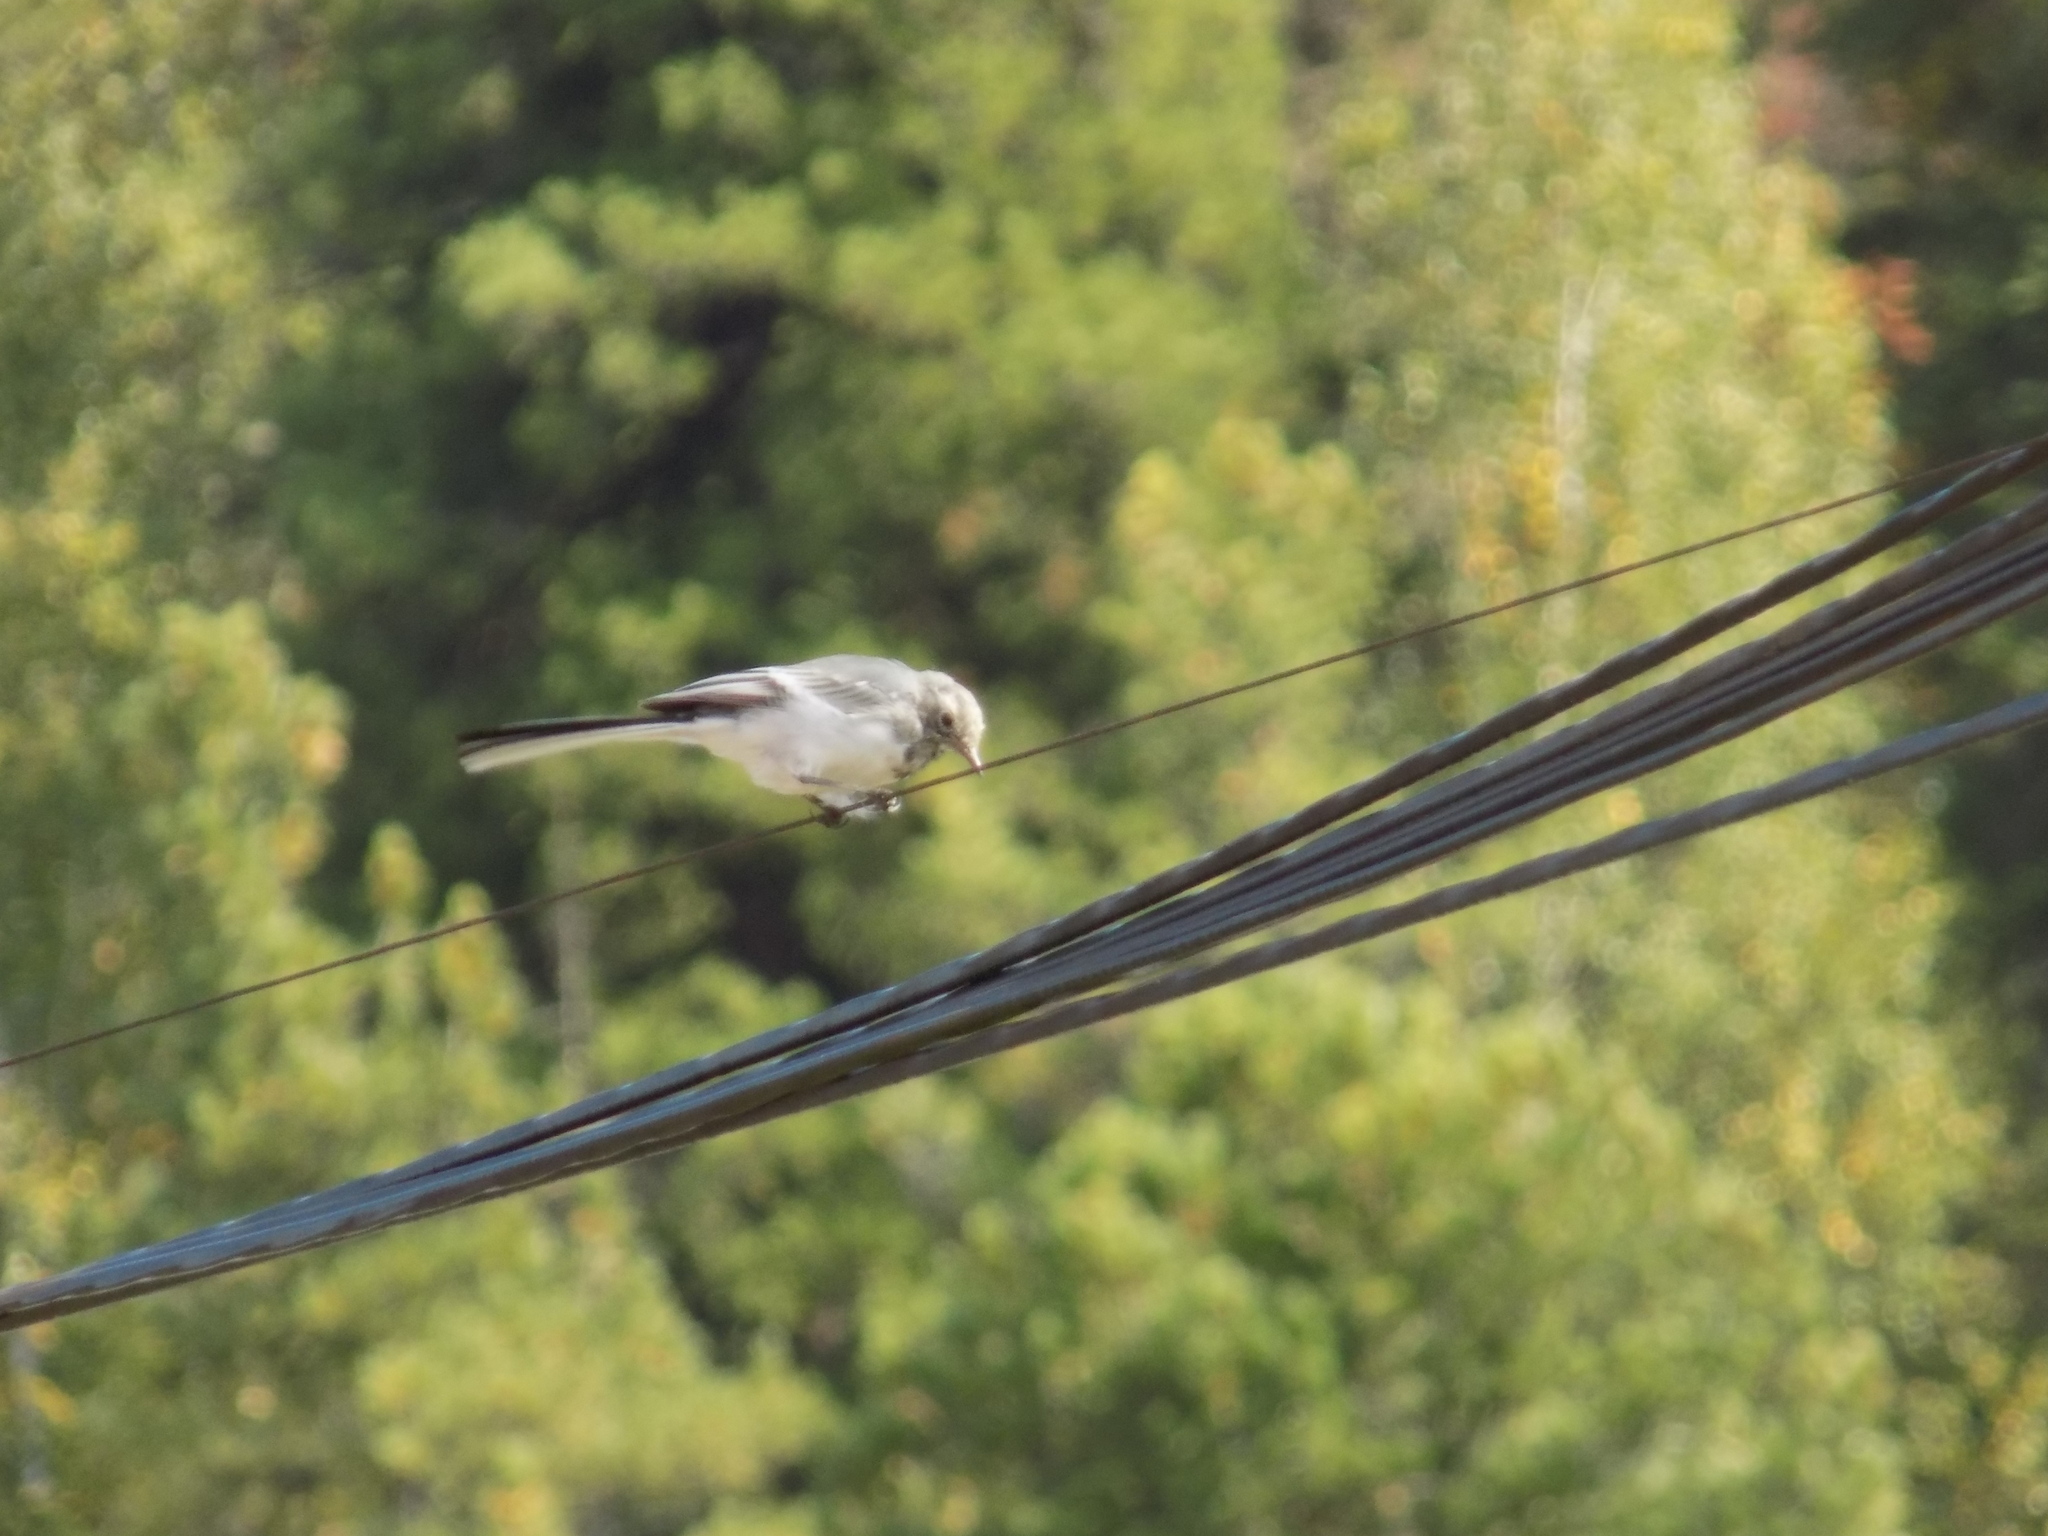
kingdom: Animalia
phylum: Chordata
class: Aves
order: Passeriformes
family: Motacillidae
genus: Motacilla
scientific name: Motacilla alba
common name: White wagtail
